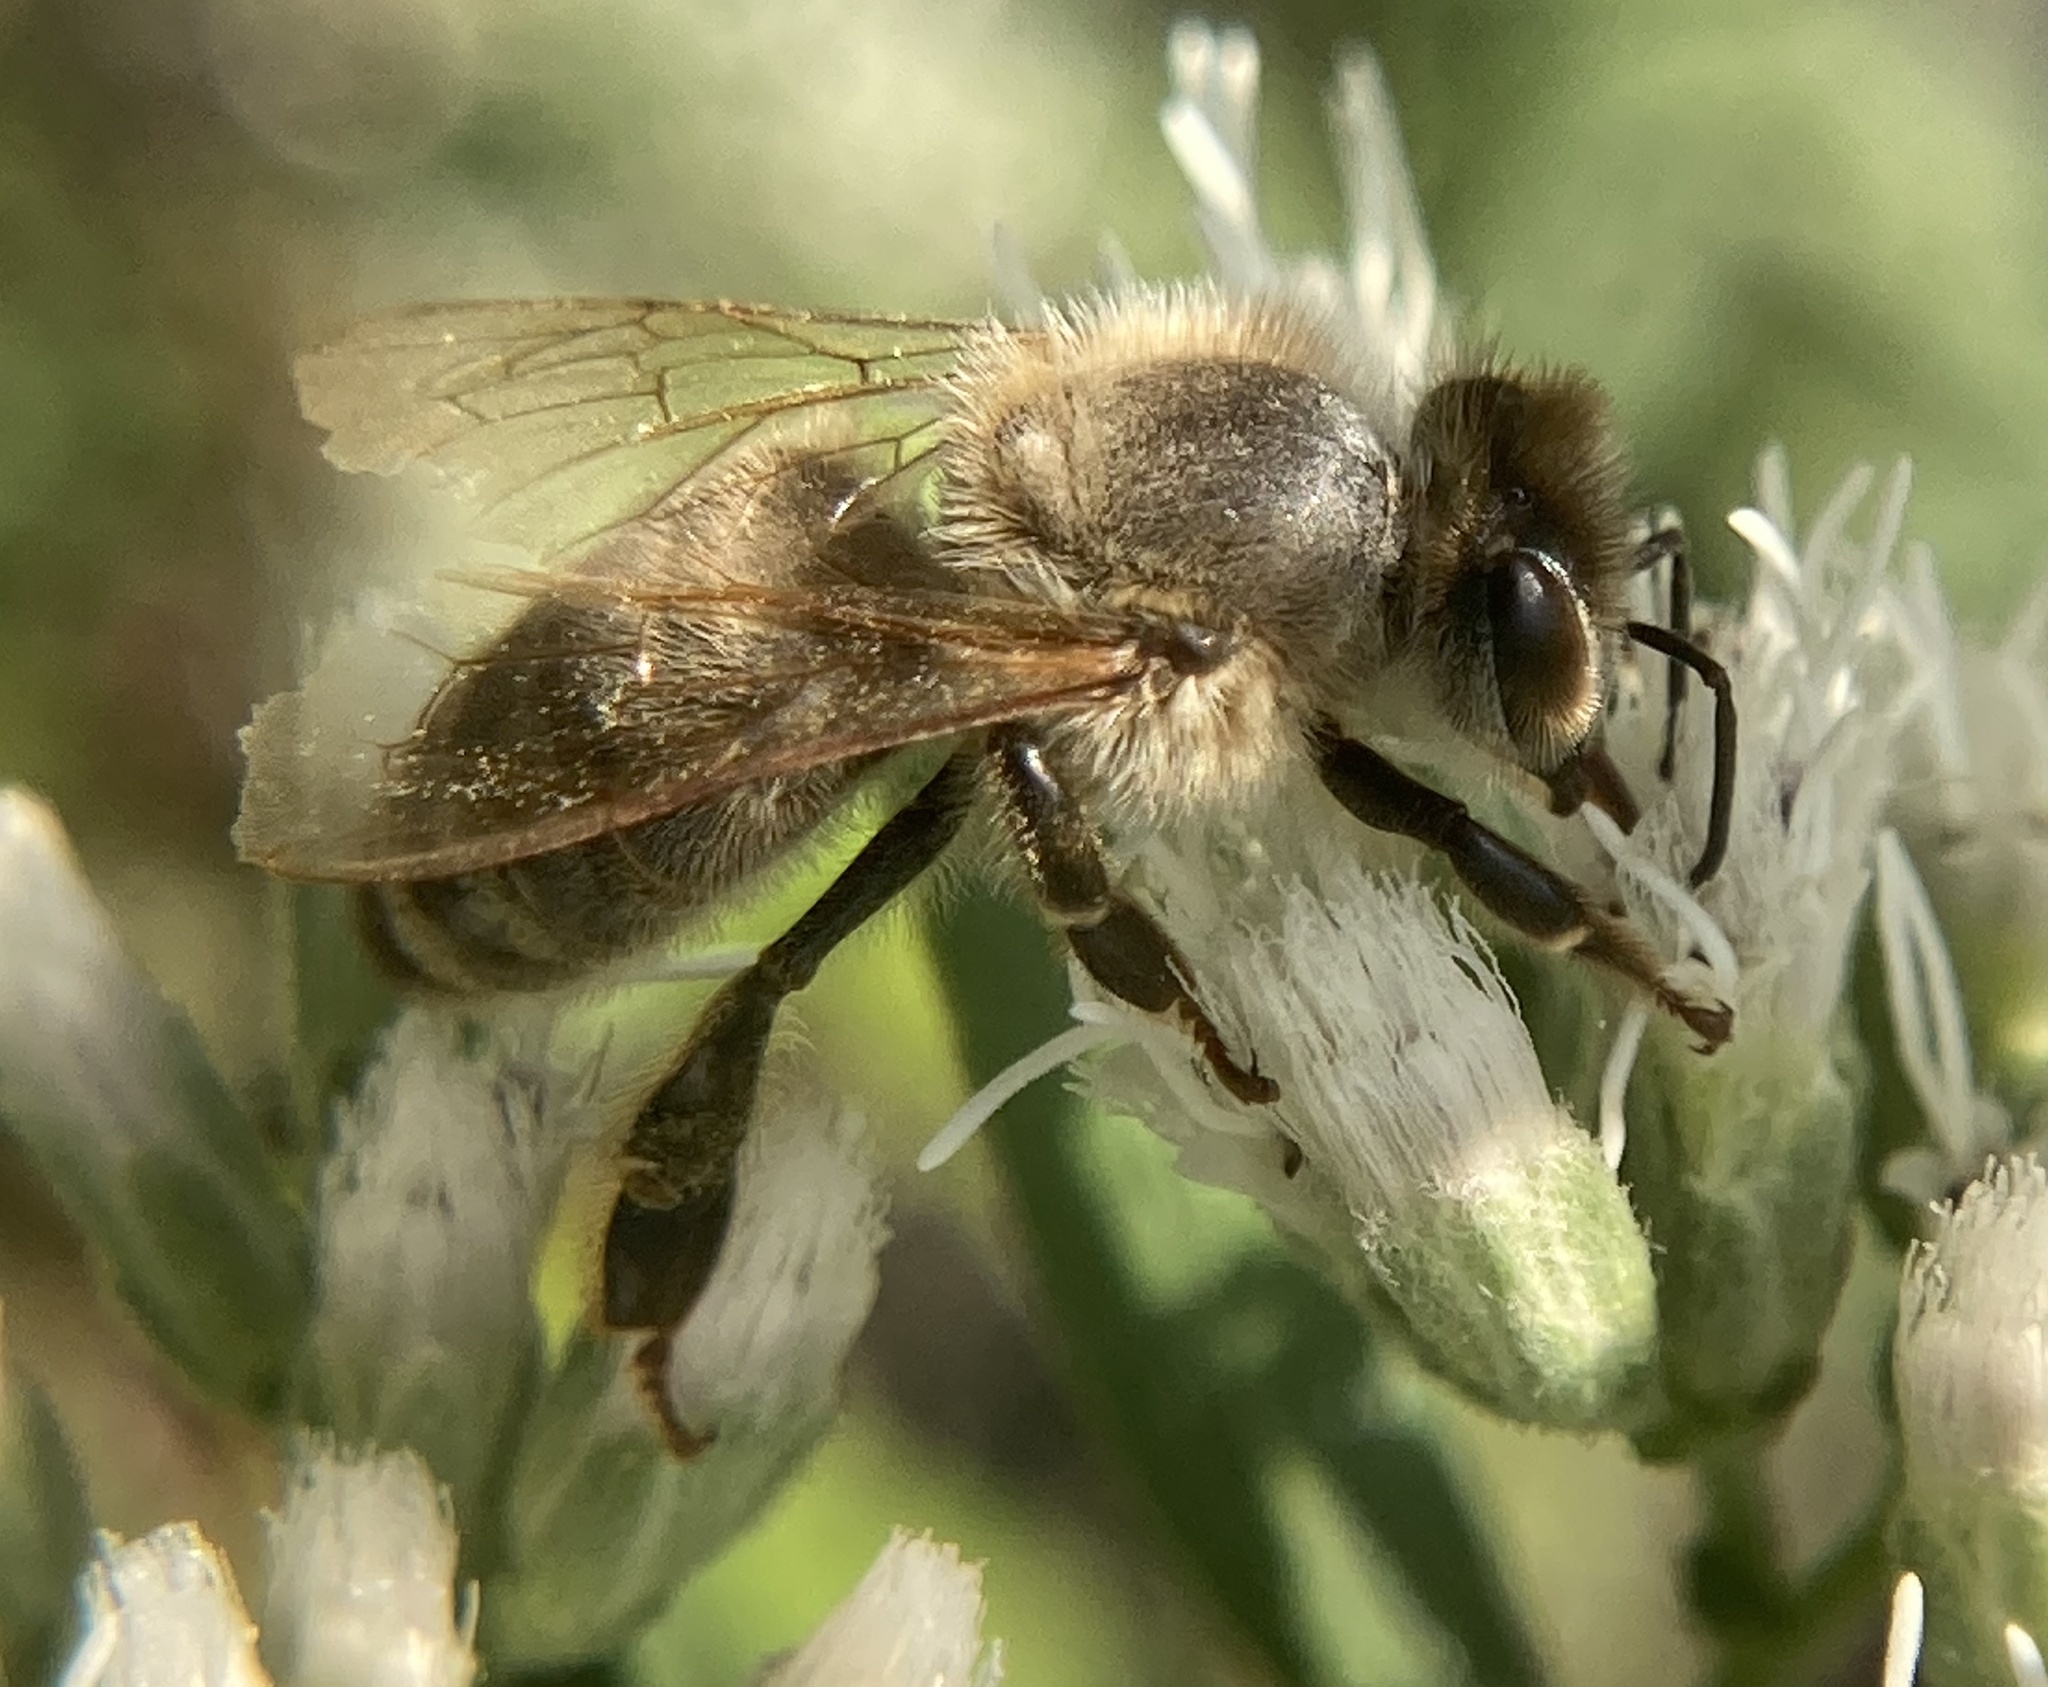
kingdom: Animalia
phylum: Arthropoda
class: Insecta
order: Hymenoptera
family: Apidae
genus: Apis
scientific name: Apis mellifera
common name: Honey bee
